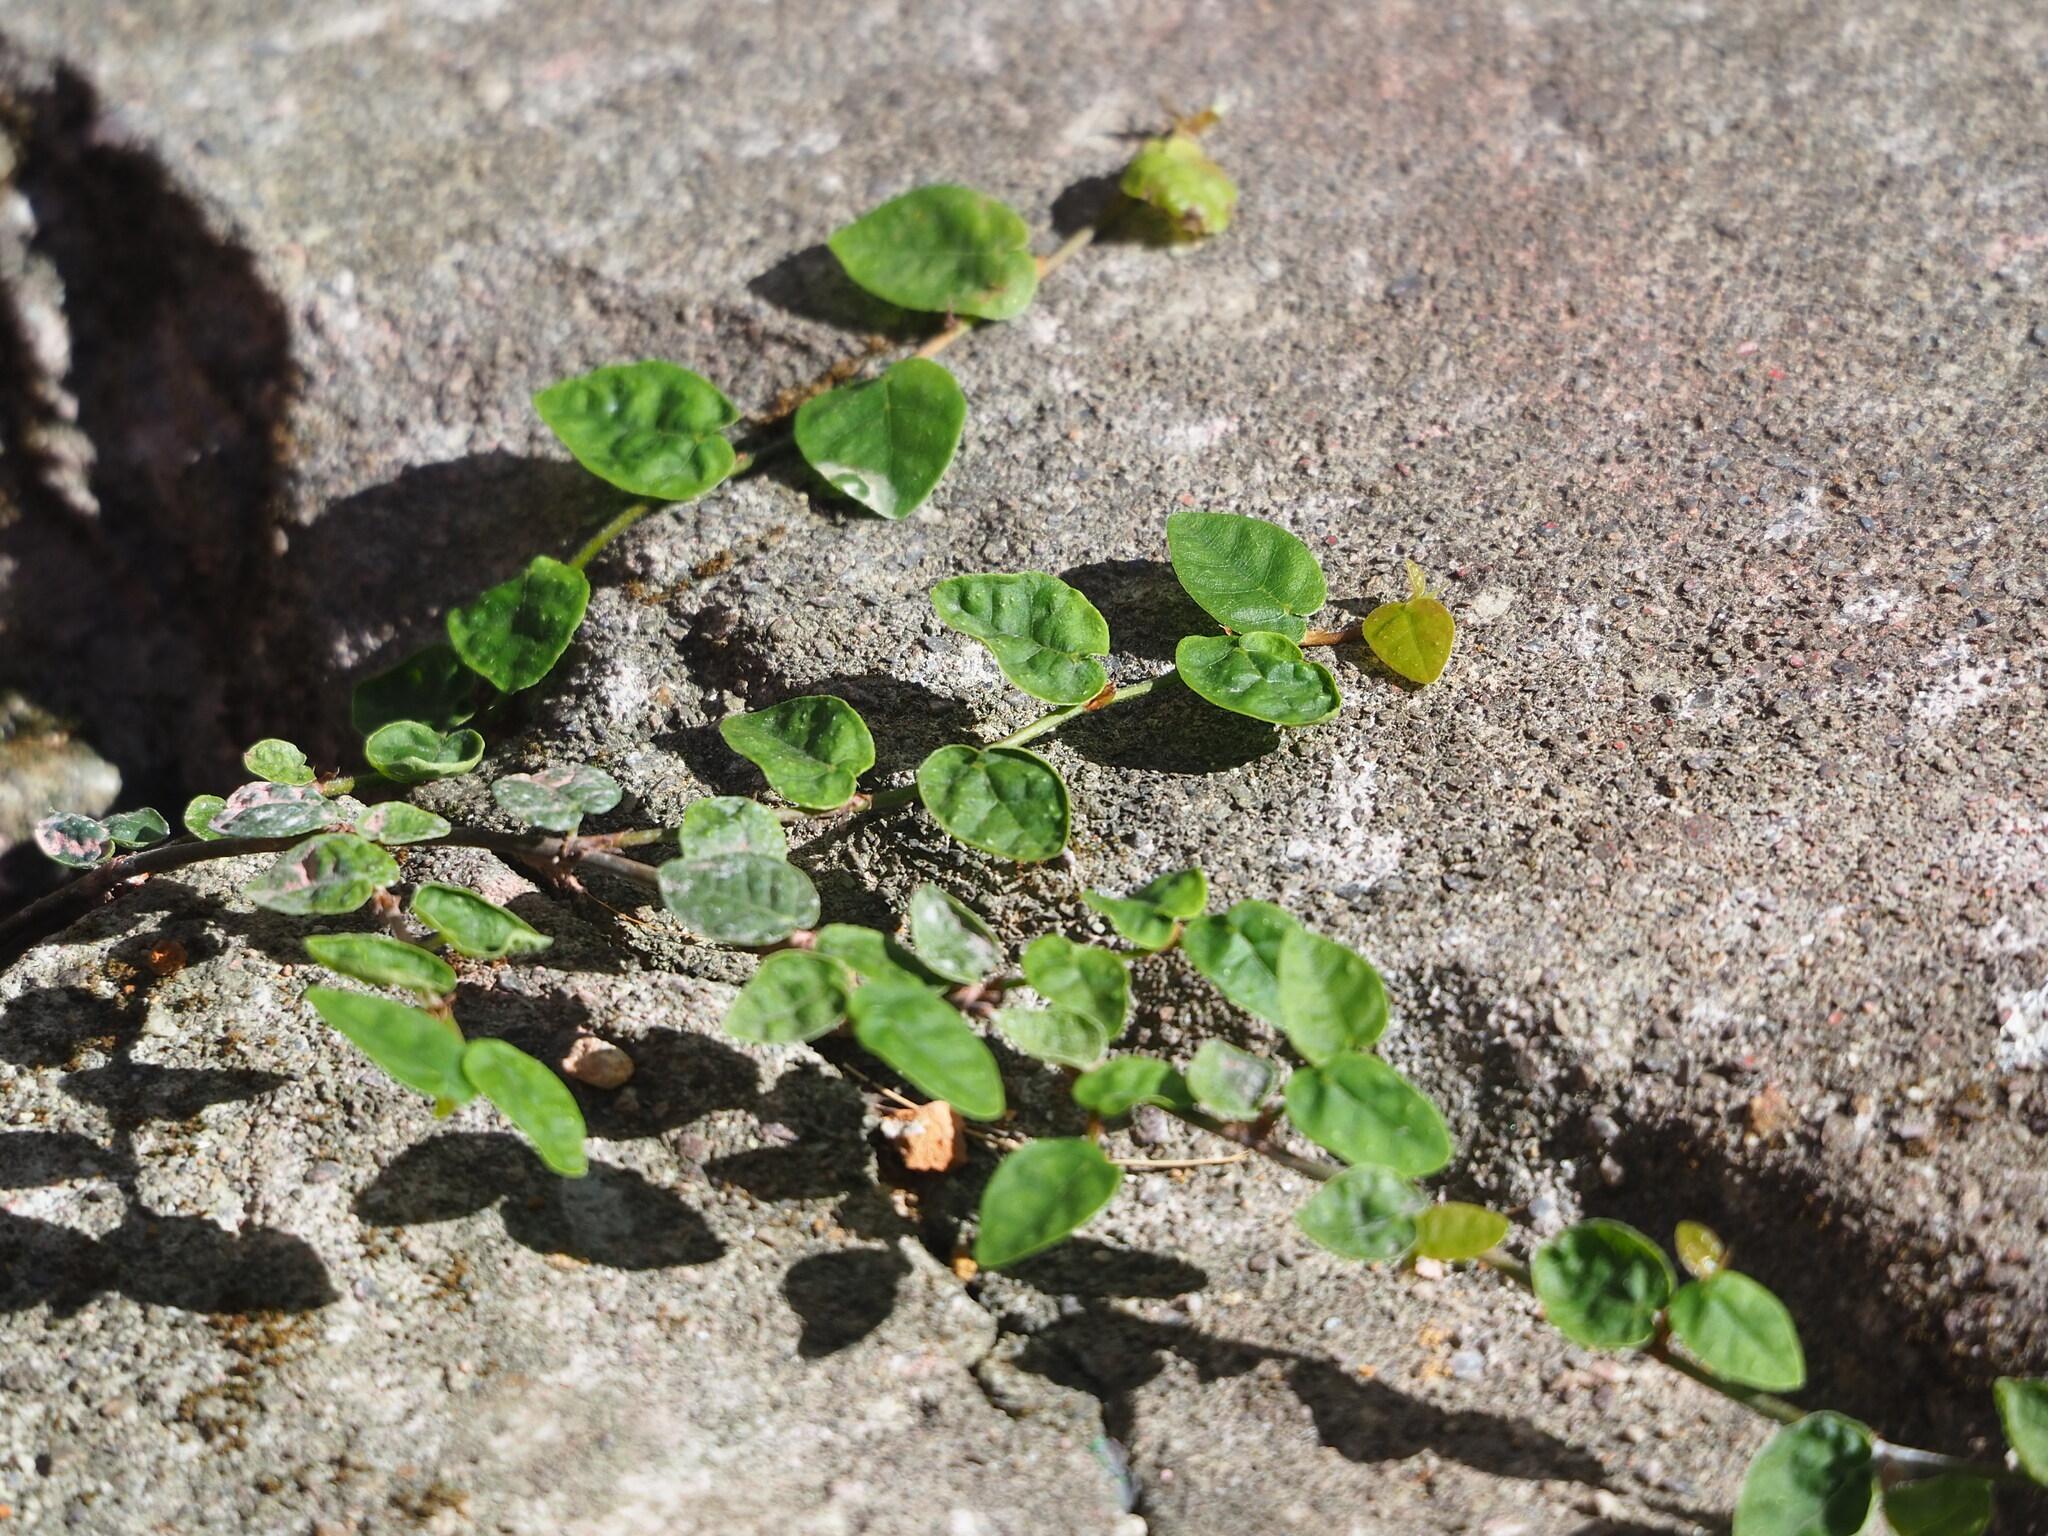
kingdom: Plantae
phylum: Tracheophyta
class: Magnoliopsida
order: Rosales
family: Moraceae
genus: Ficus
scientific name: Ficus pumila
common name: Climbingfig
